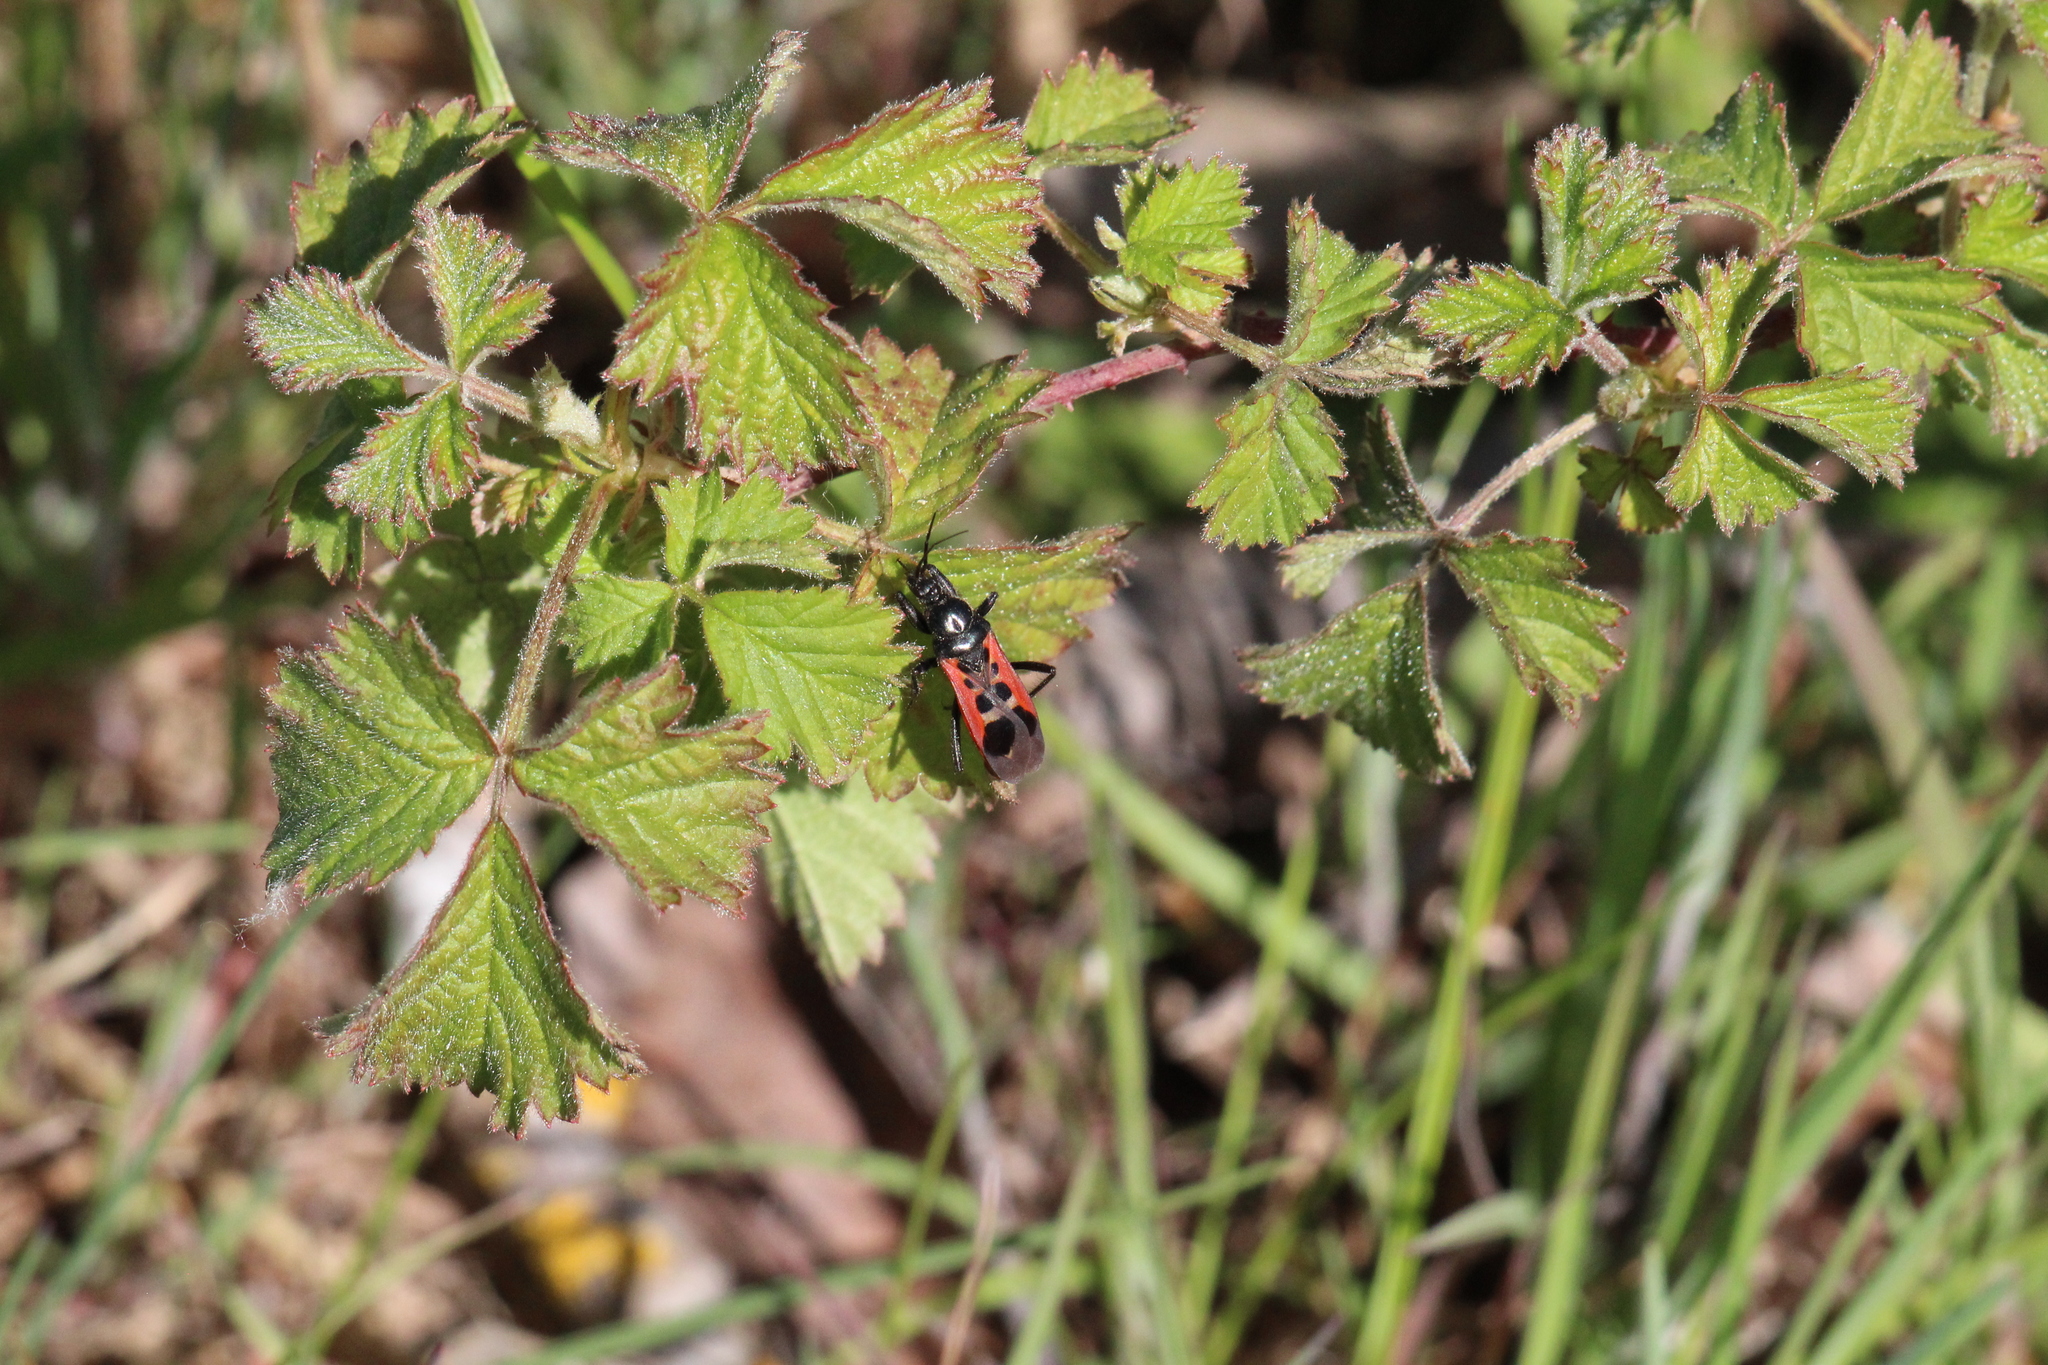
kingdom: Animalia
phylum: Arthropoda
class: Insecta
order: Hemiptera
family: Reduviidae
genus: Peirates
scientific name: Peirates stridulus
